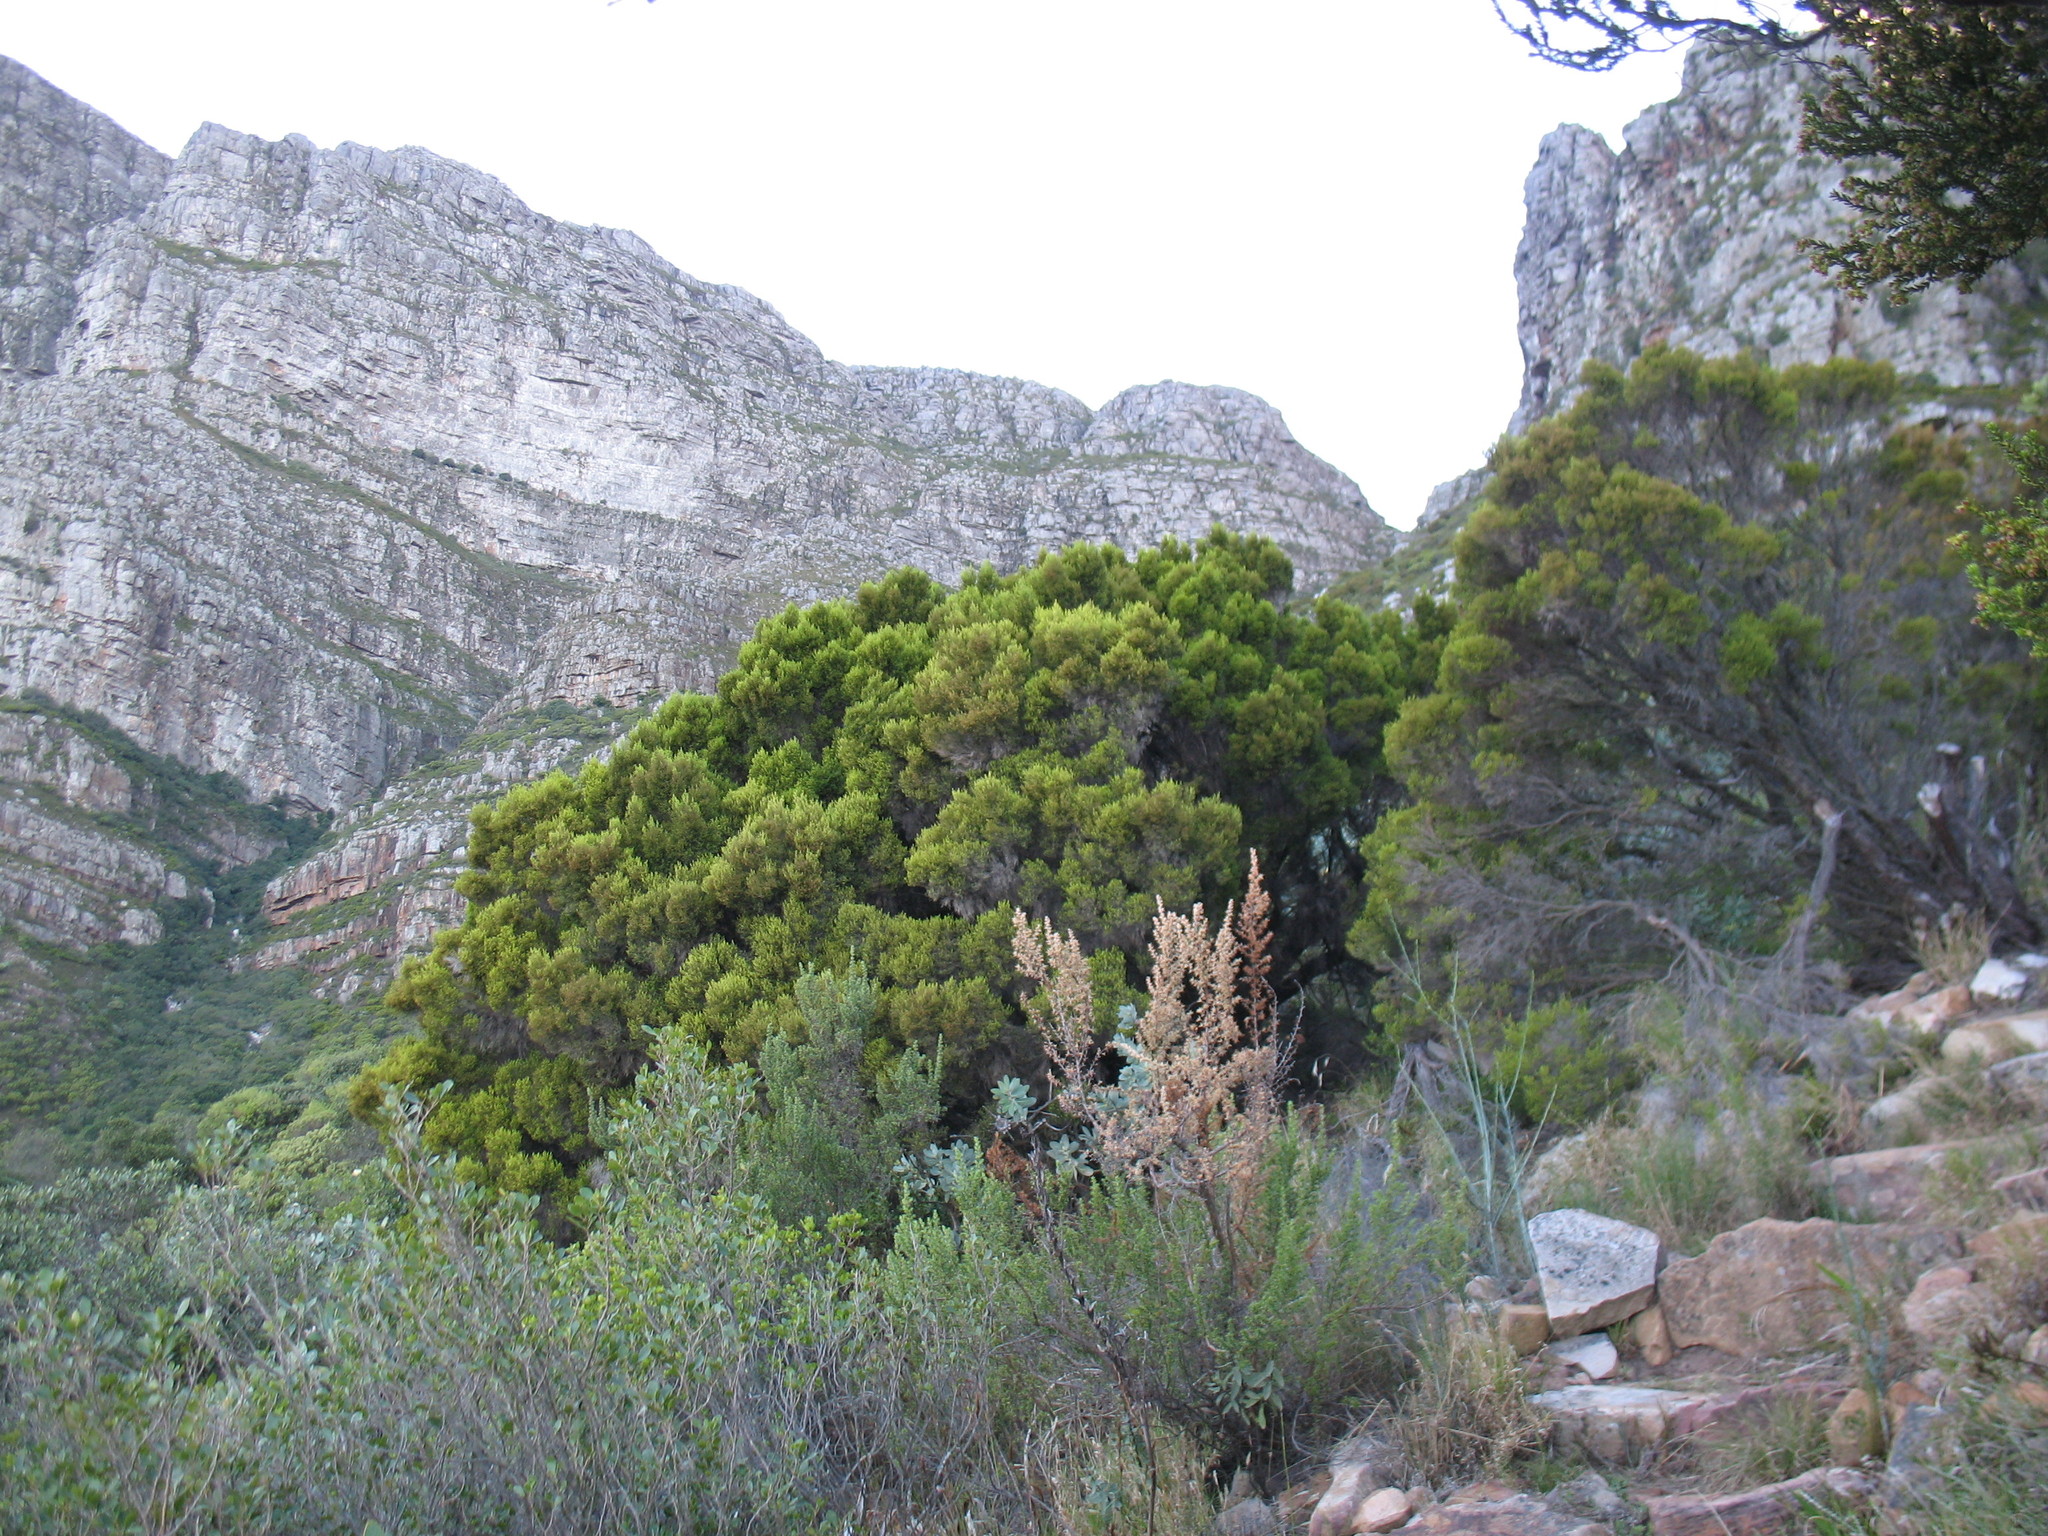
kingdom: Plantae
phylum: Tracheophyta
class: Magnoliopsida
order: Ericales
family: Ericaceae
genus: Erica
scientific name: Erica tristis
